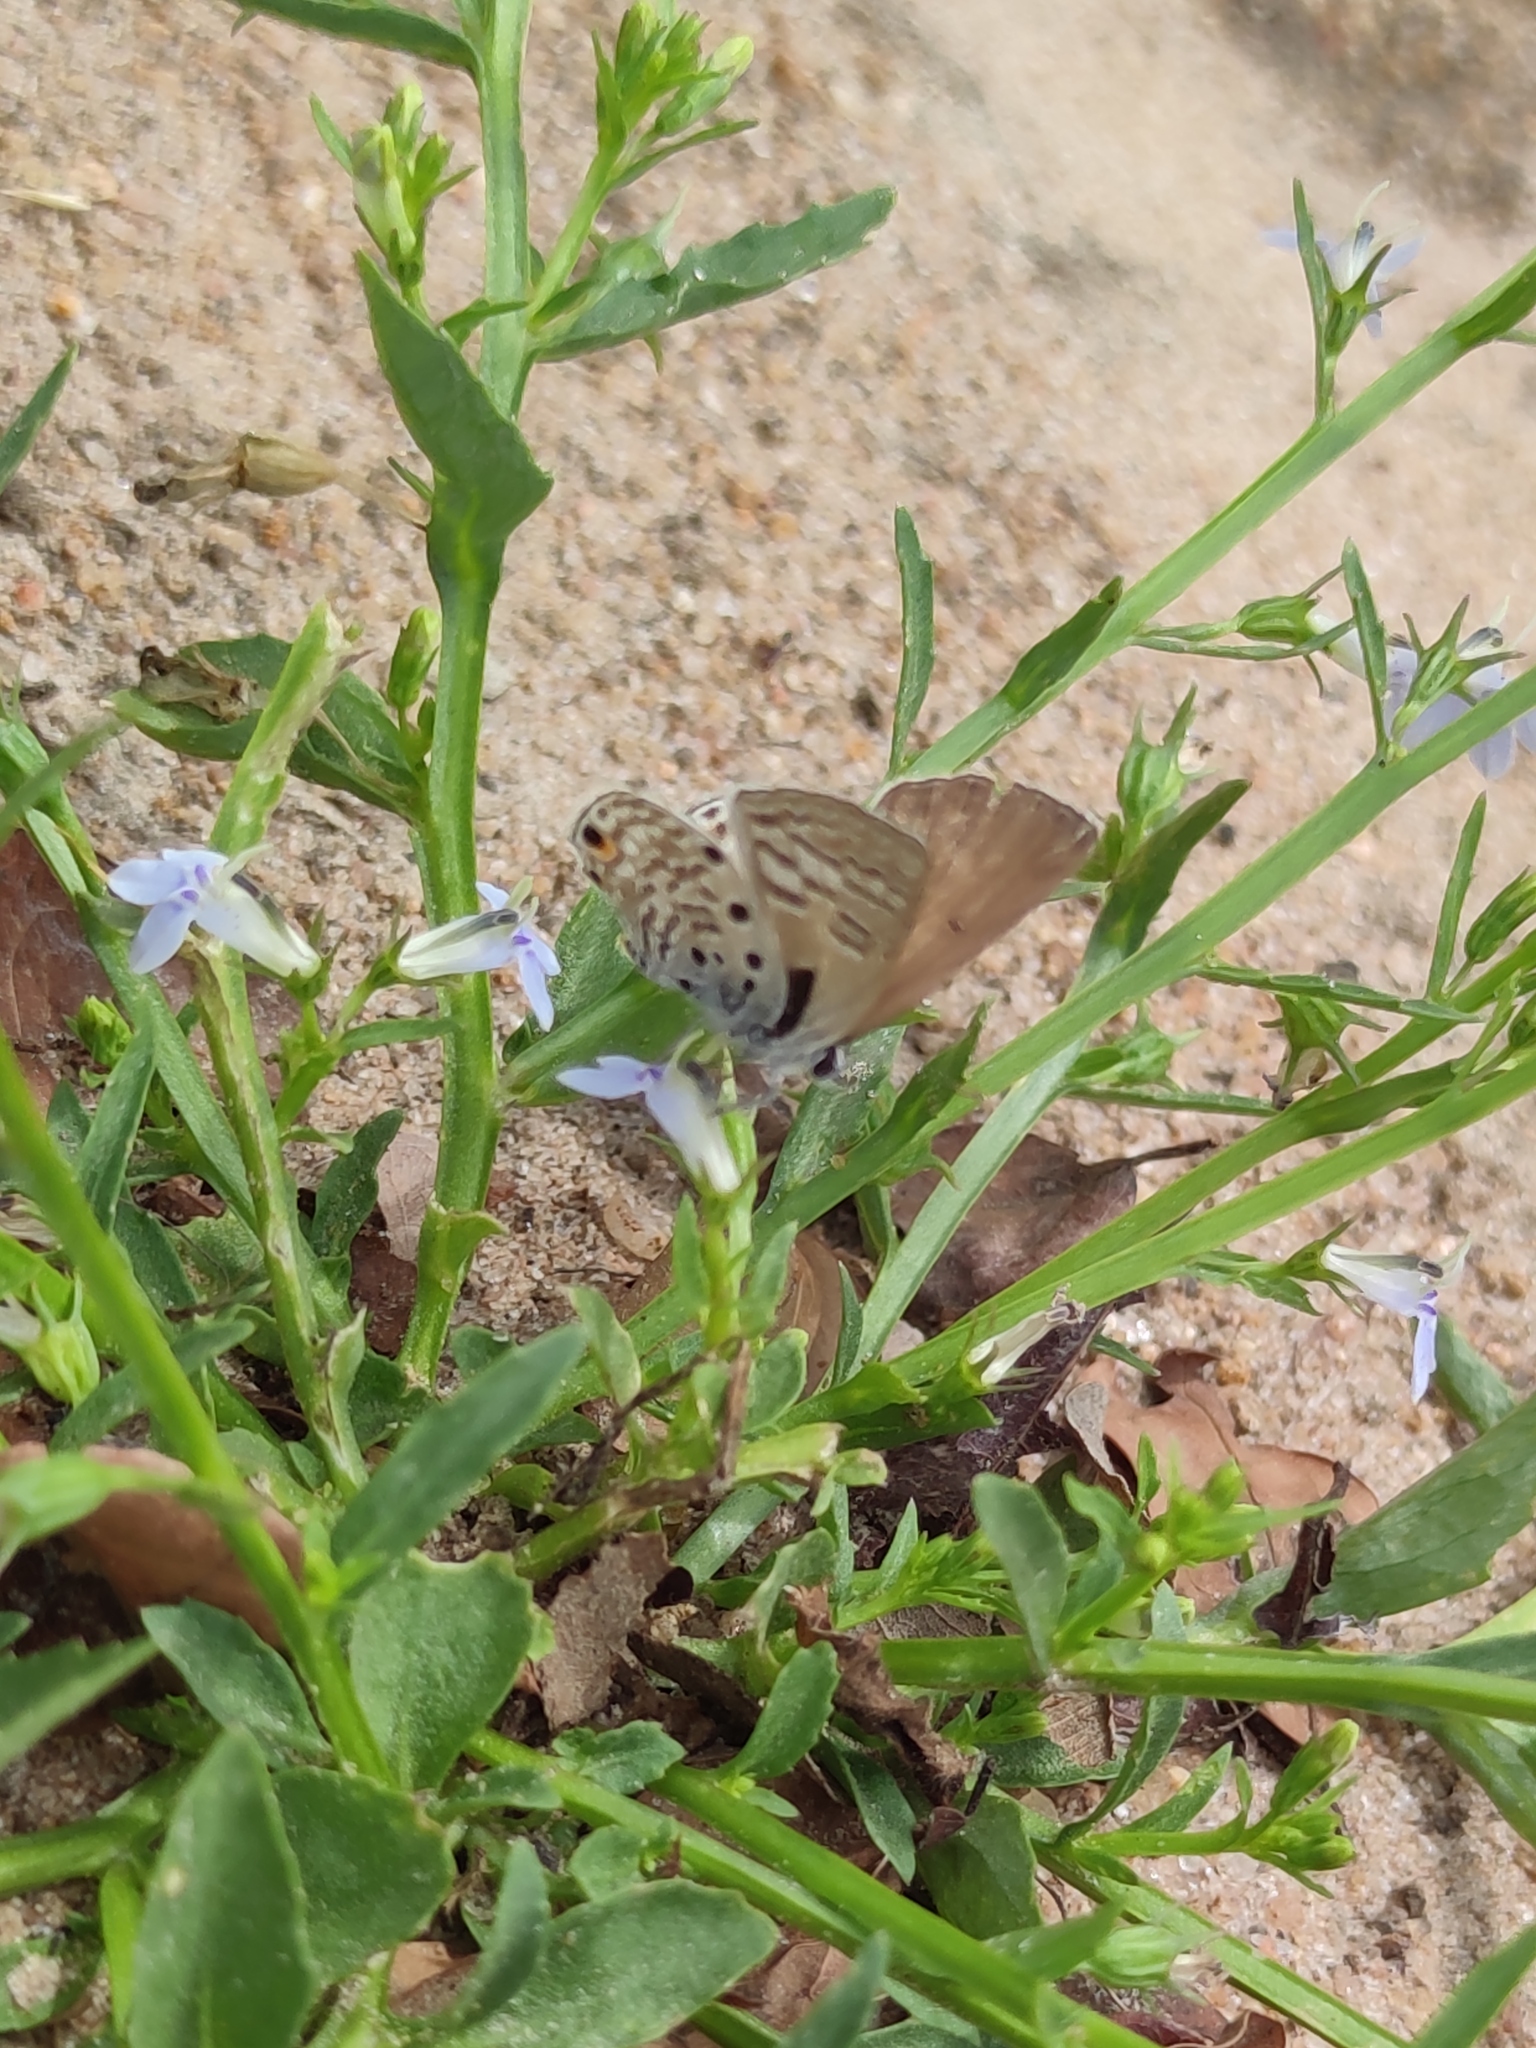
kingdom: Animalia
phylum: Arthropoda
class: Insecta
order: Lepidoptera
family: Lycaenidae
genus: Anthene
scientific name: Anthene amarah
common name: Black-striped hairtail
